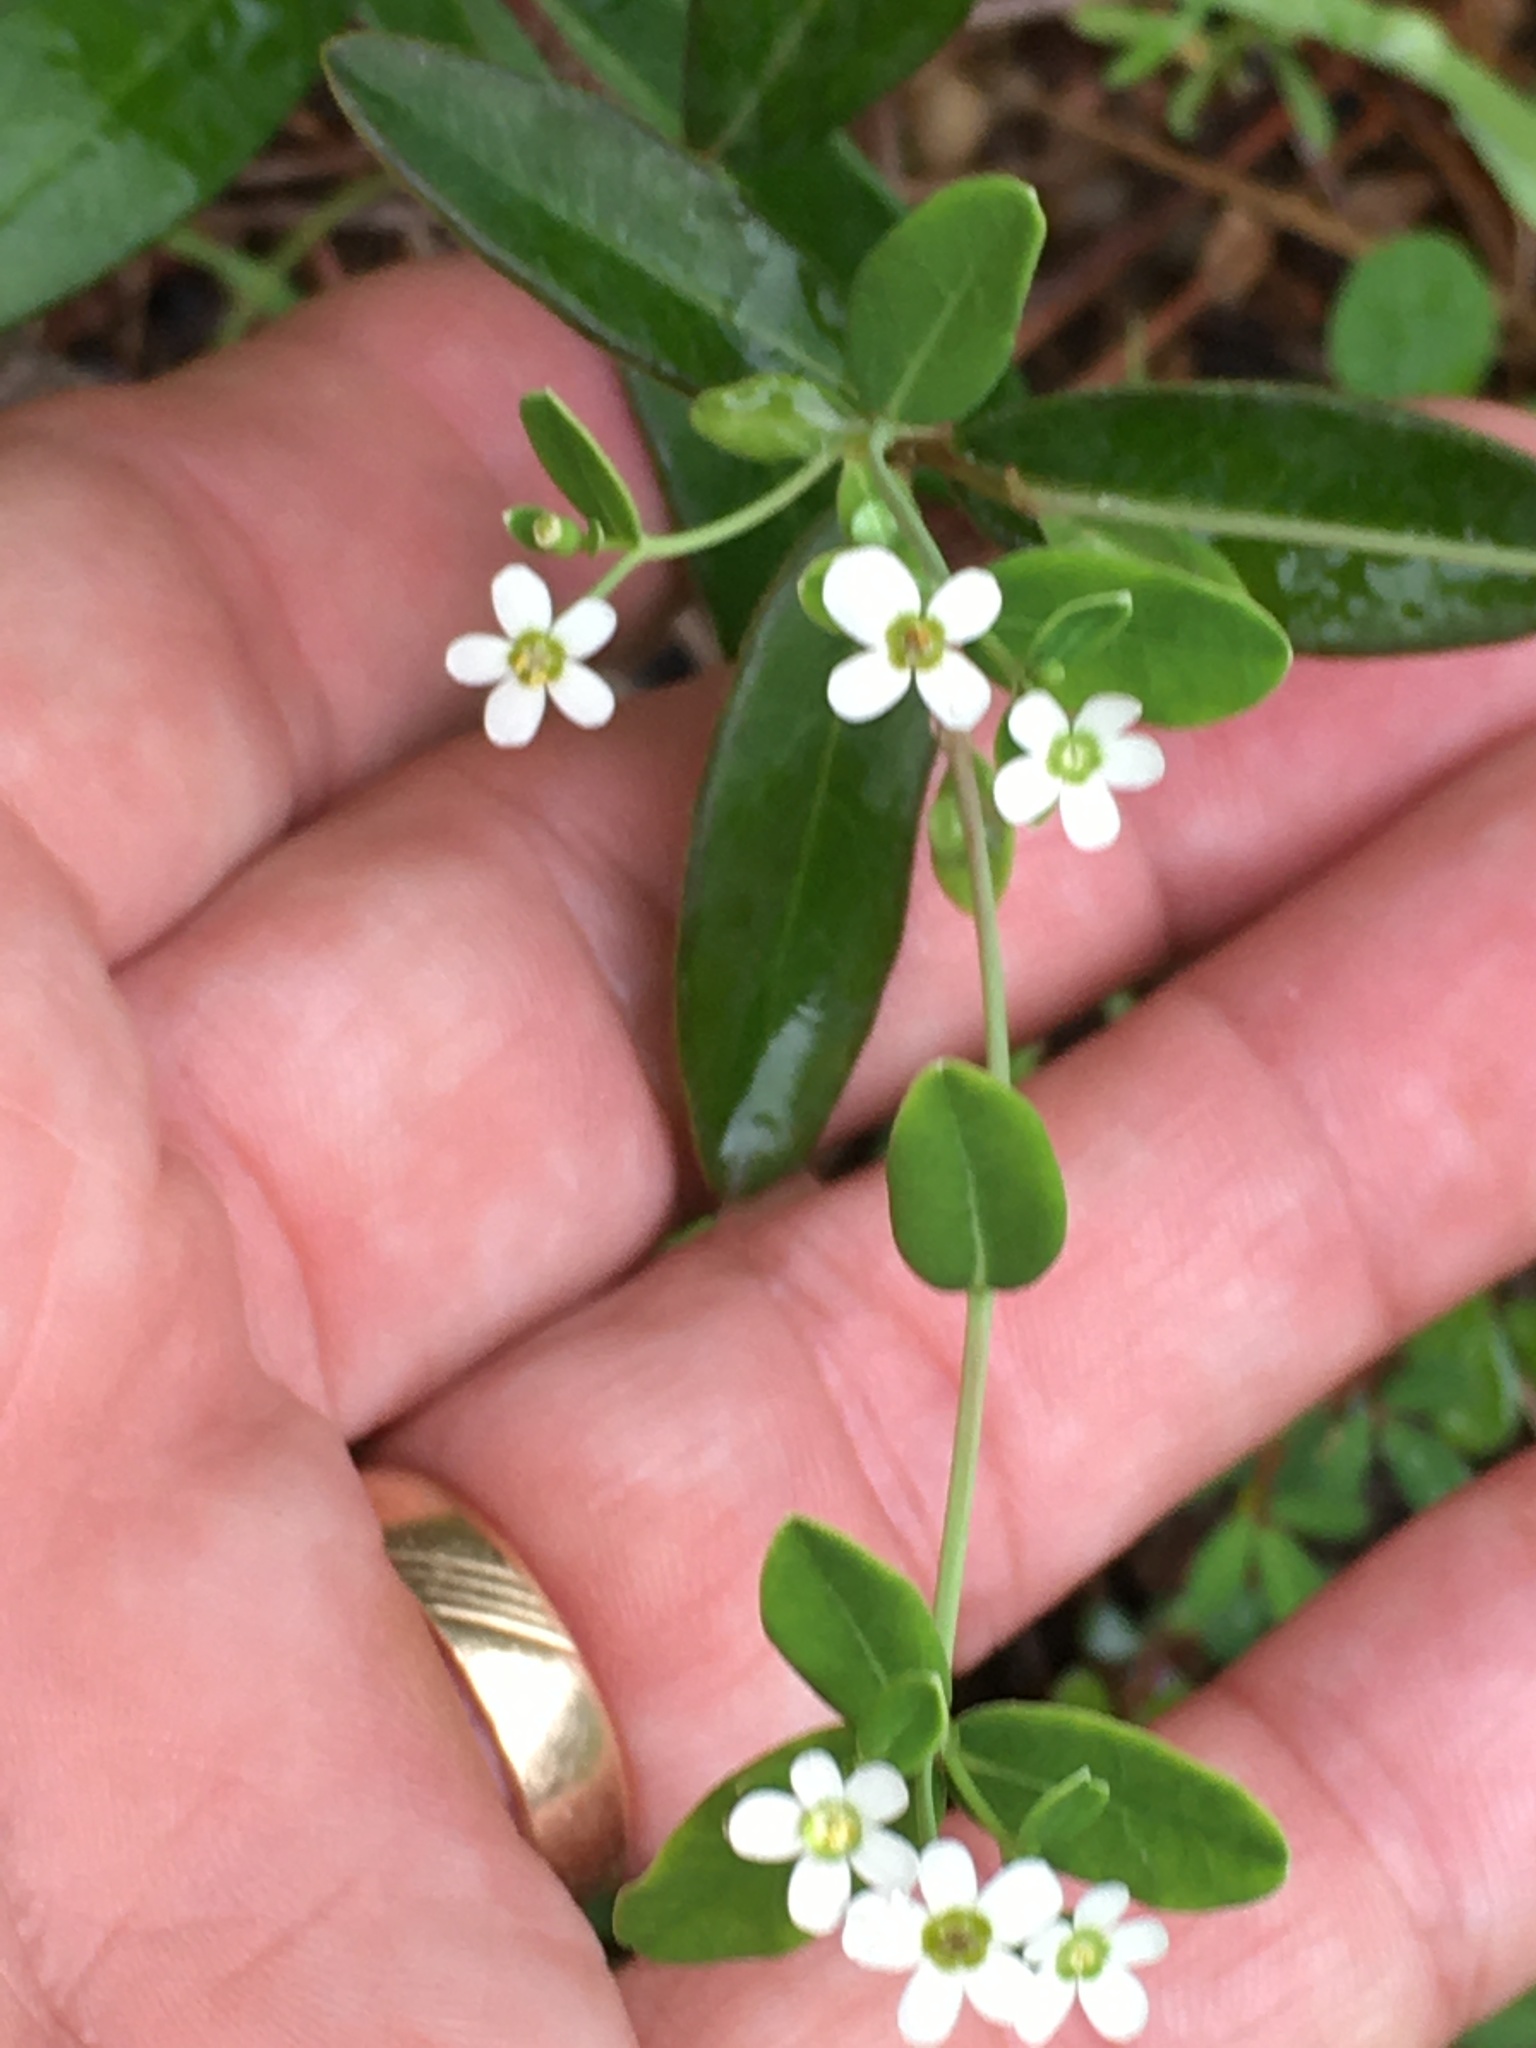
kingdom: Plantae
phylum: Tracheophyta
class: Magnoliopsida
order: Malpighiales
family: Euphorbiaceae
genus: Euphorbia
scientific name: Euphorbia corollata
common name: Flowering spurge
